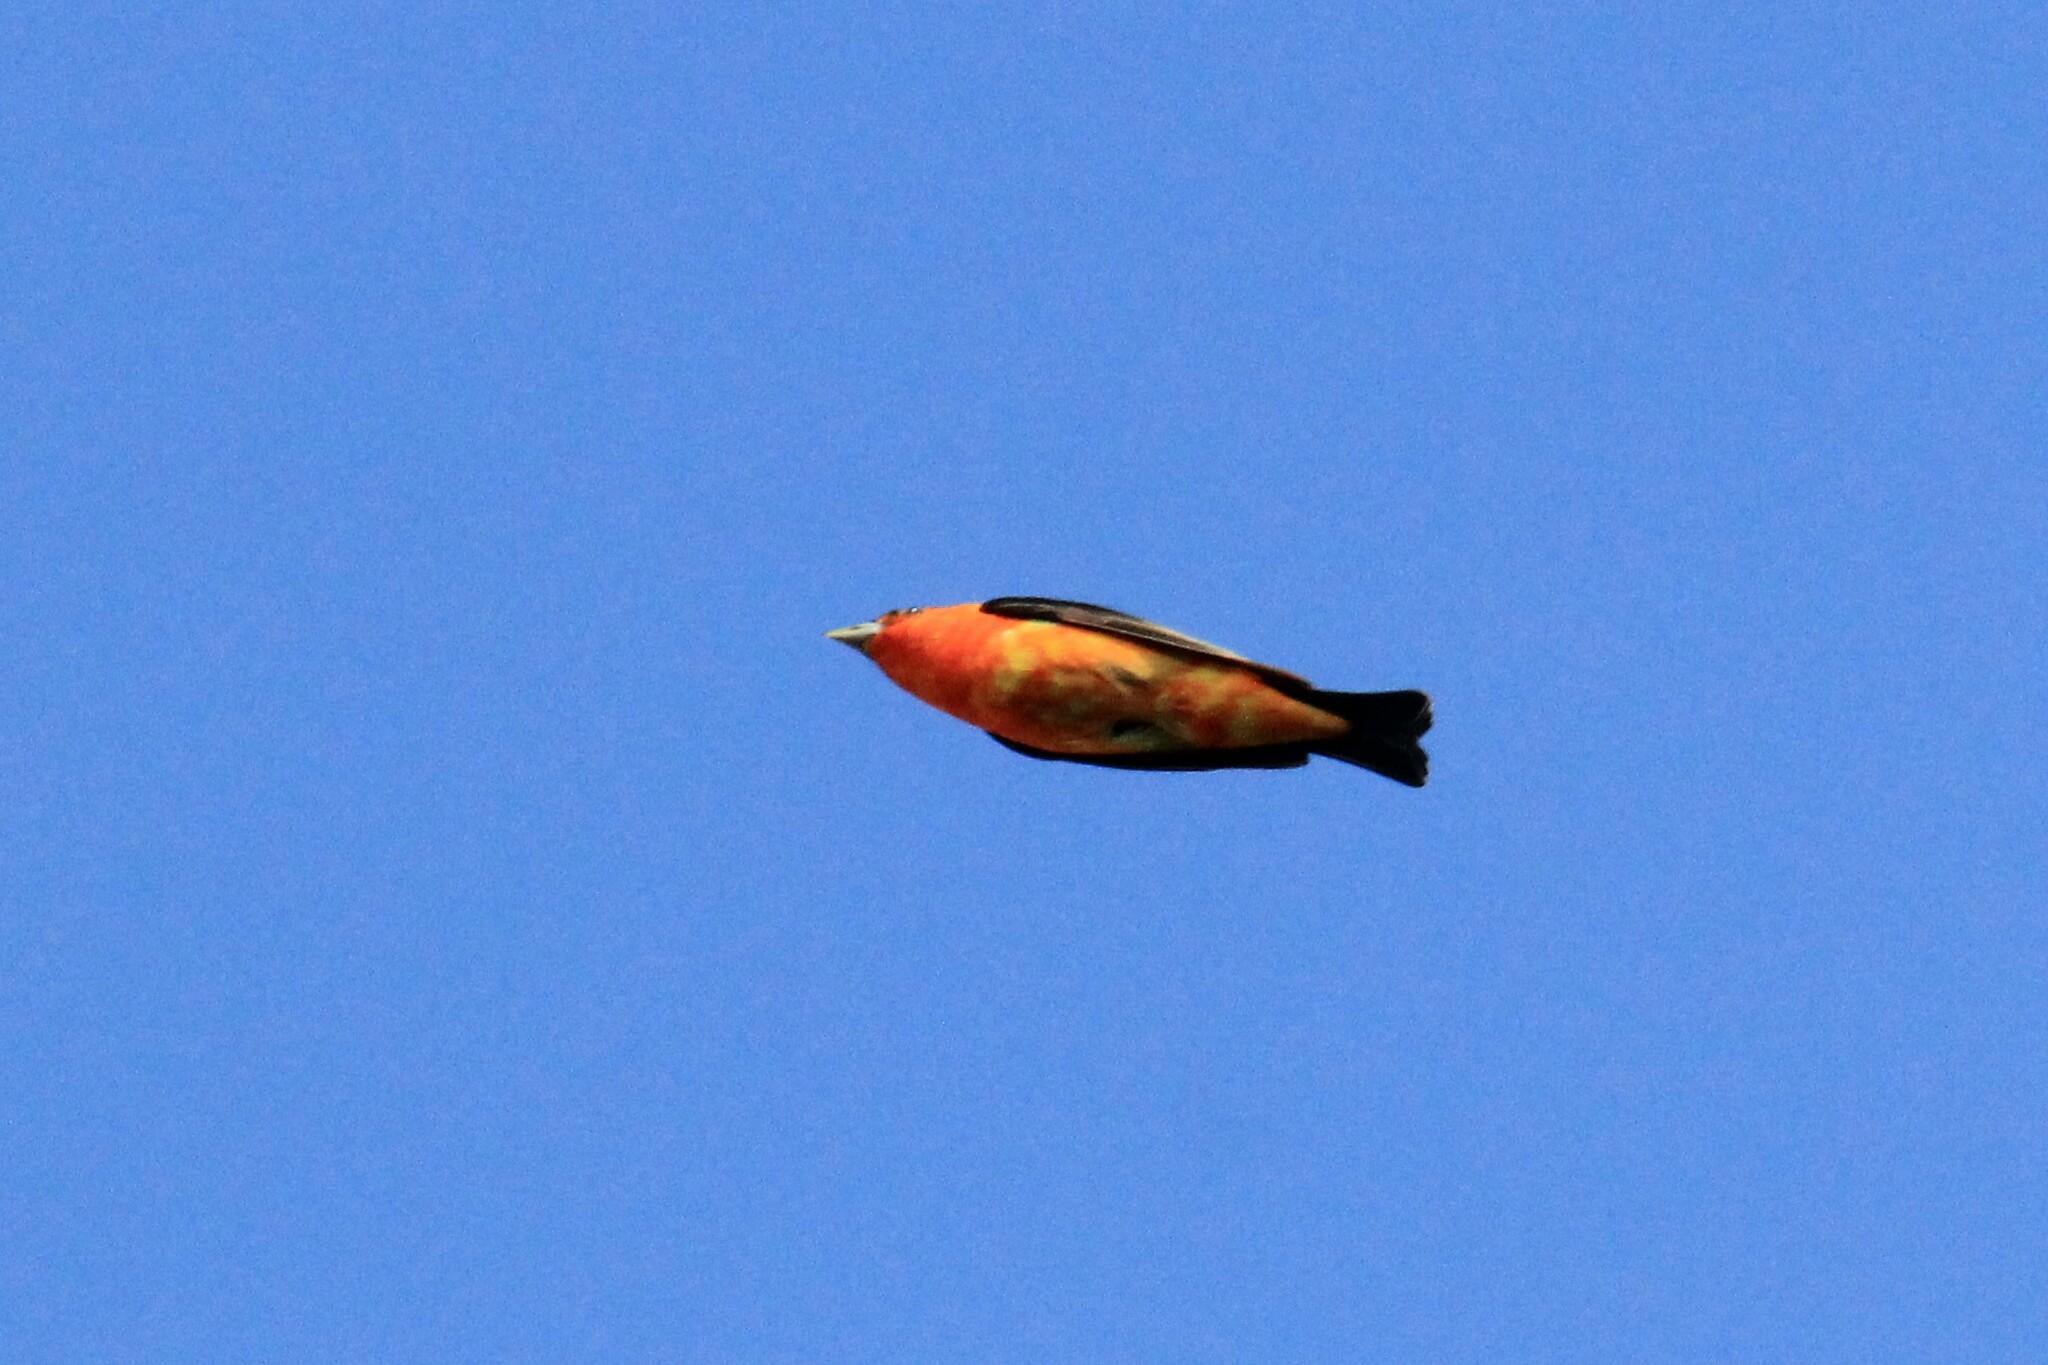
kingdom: Animalia
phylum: Chordata
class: Aves
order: Passeriformes
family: Cardinalidae
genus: Piranga
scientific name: Piranga olivacea
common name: Scarlet tanager
